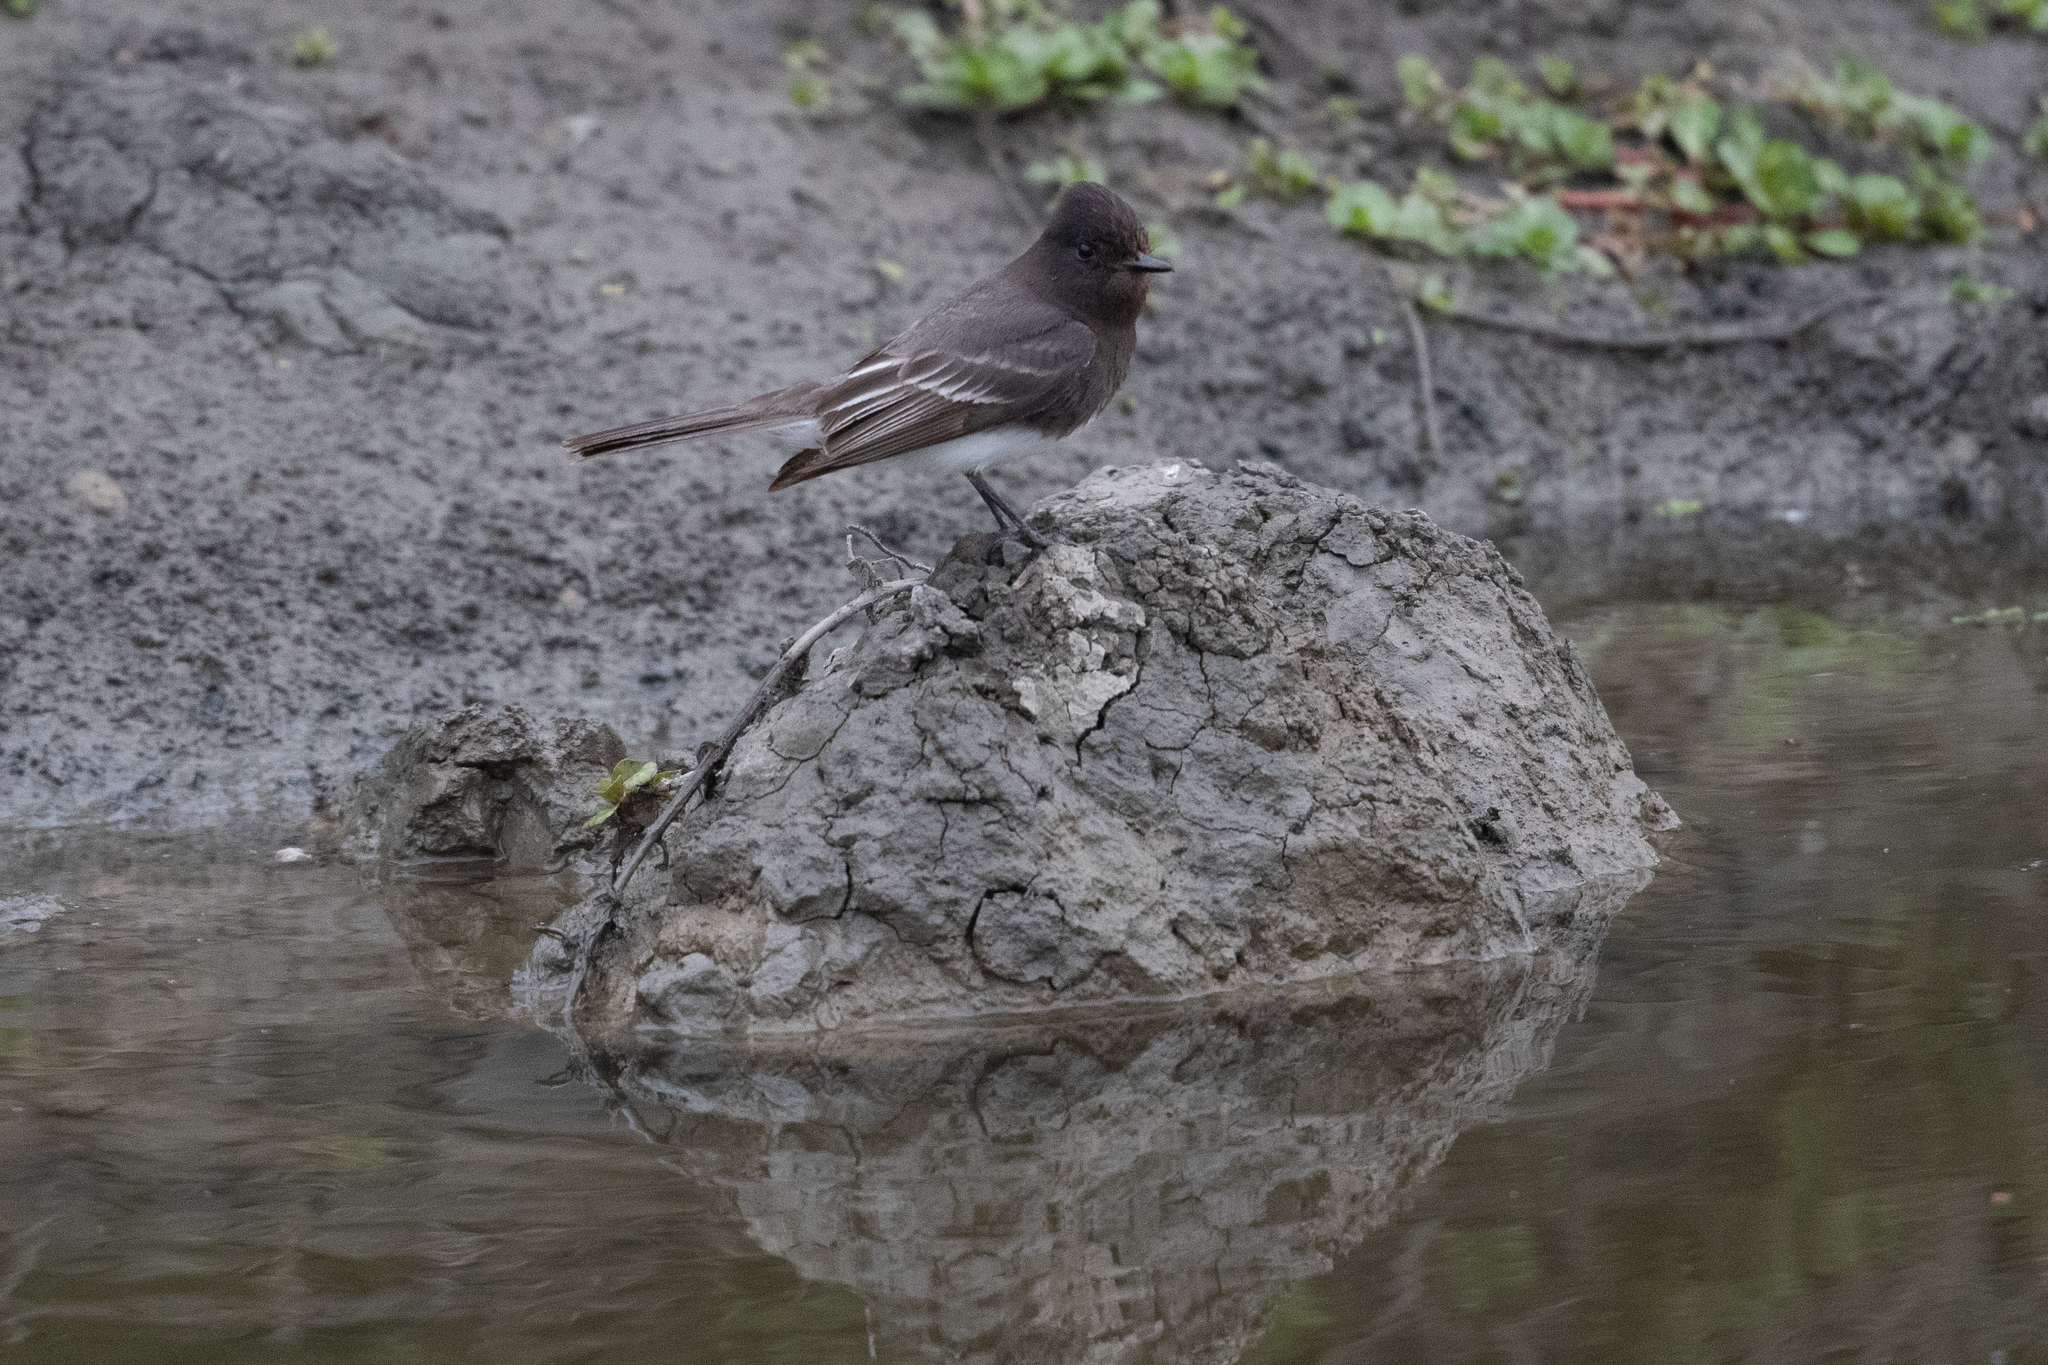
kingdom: Animalia
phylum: Chordata
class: Aves
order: Passeriformes
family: Tyrannidae
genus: Sayornis
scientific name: Sayornis nigricans
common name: Black phoebe
